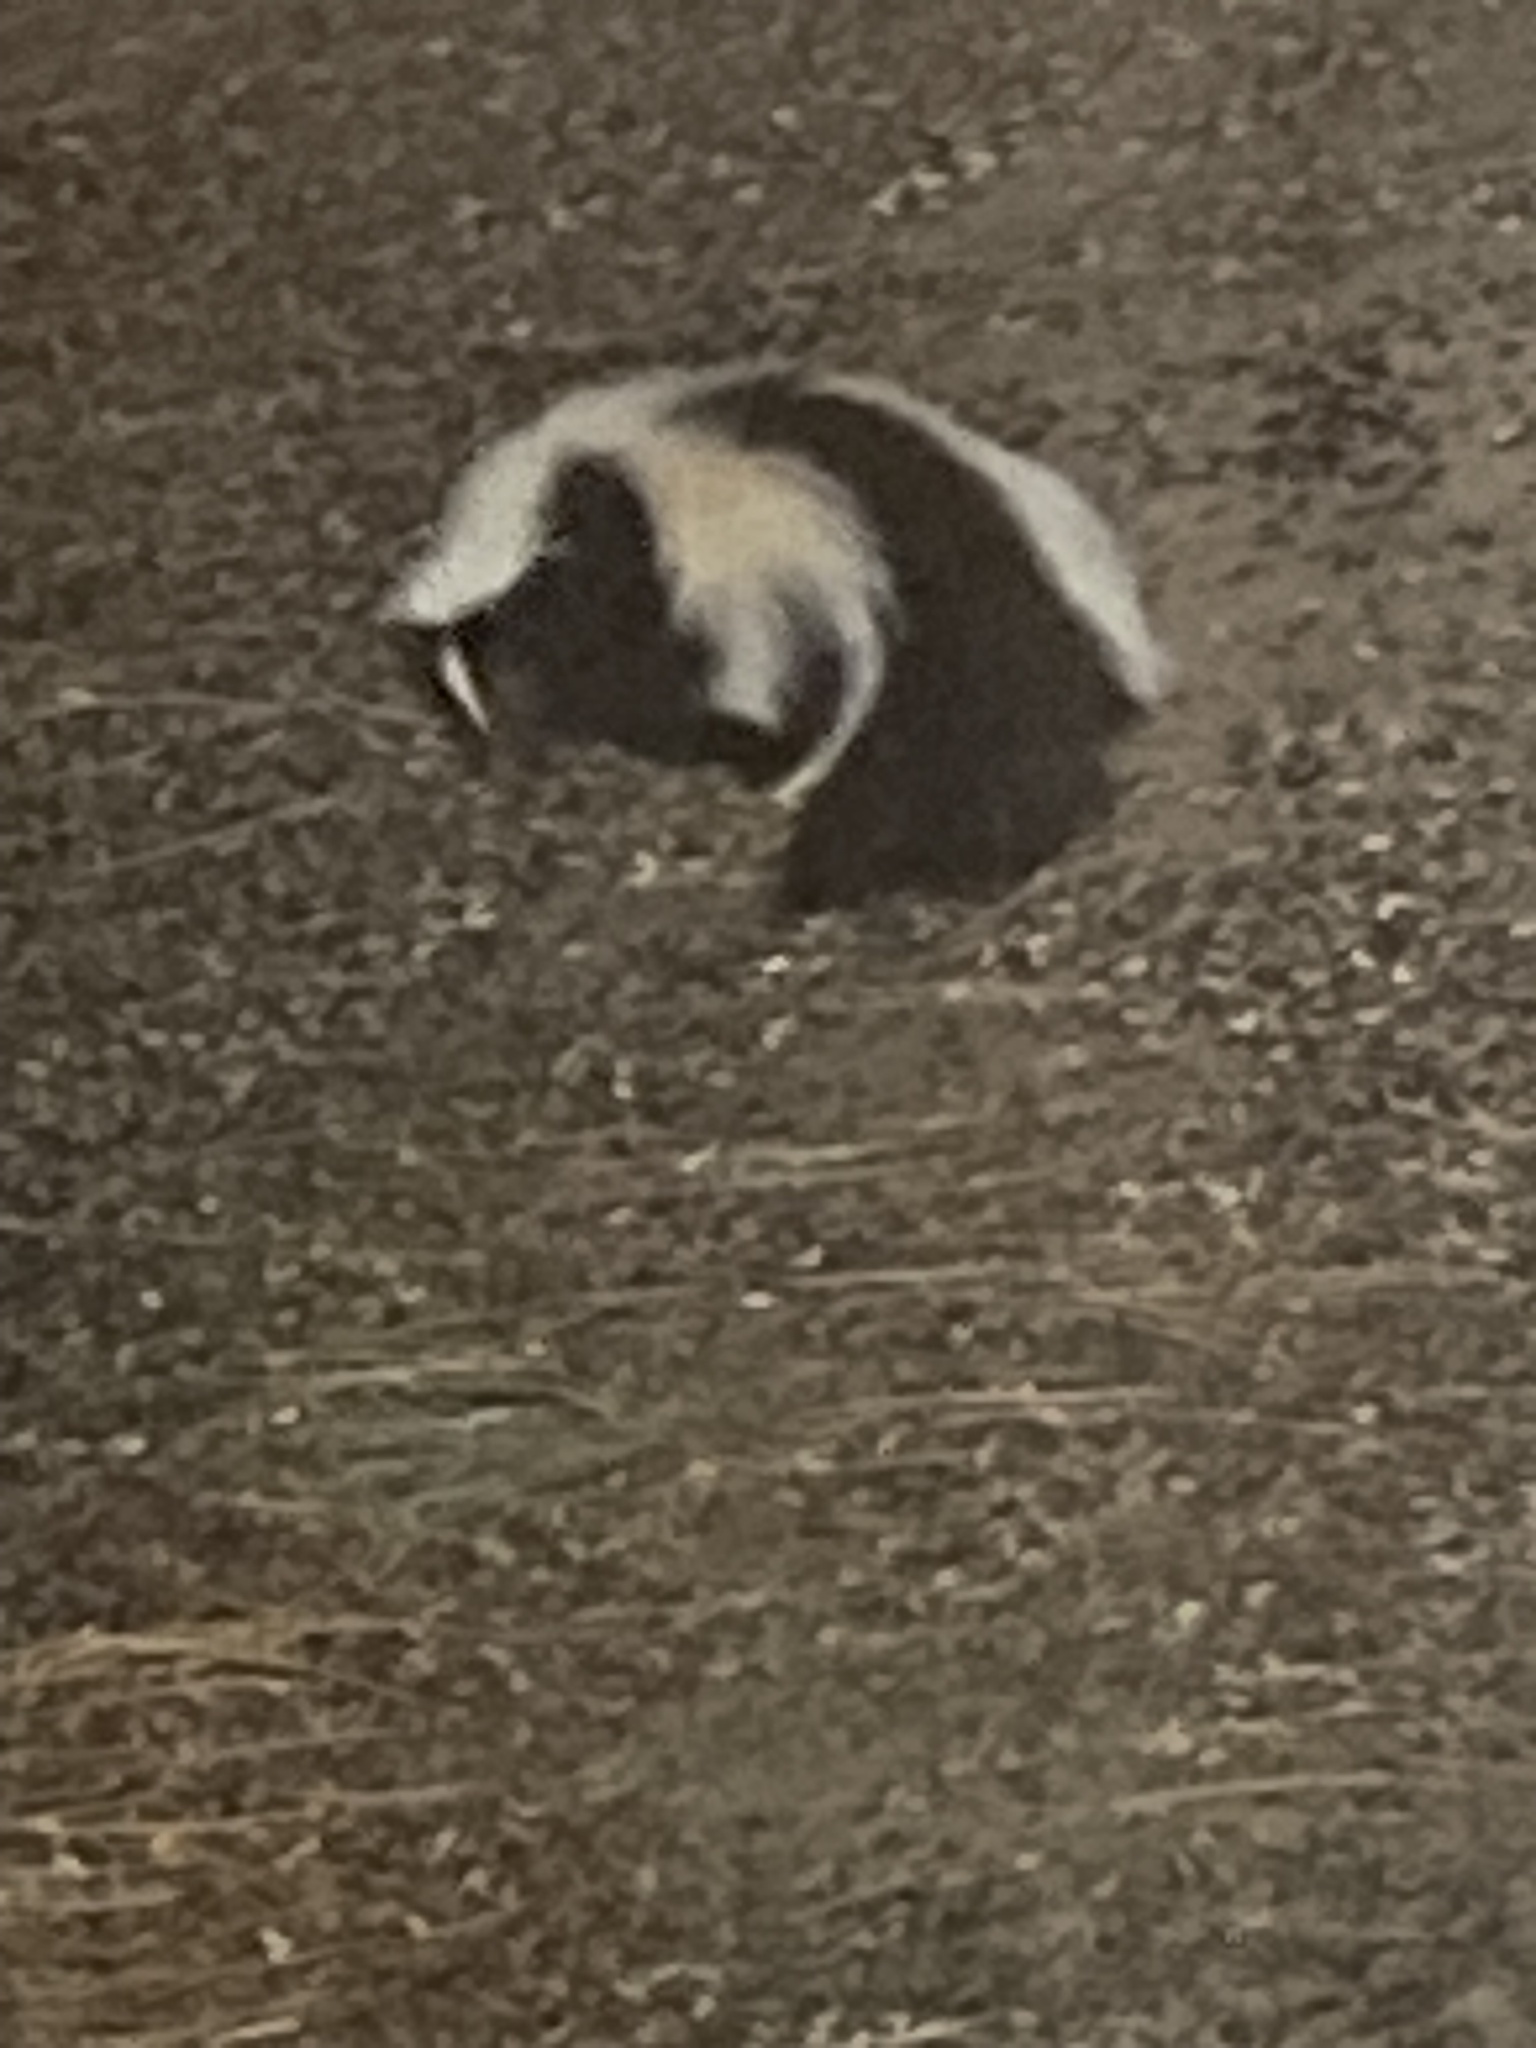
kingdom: Animalia
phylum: Chordata
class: Mammalia
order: Carnivora
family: Mephitidae
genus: Mephitis
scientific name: Mephitis mephitis
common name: Striped skunk
